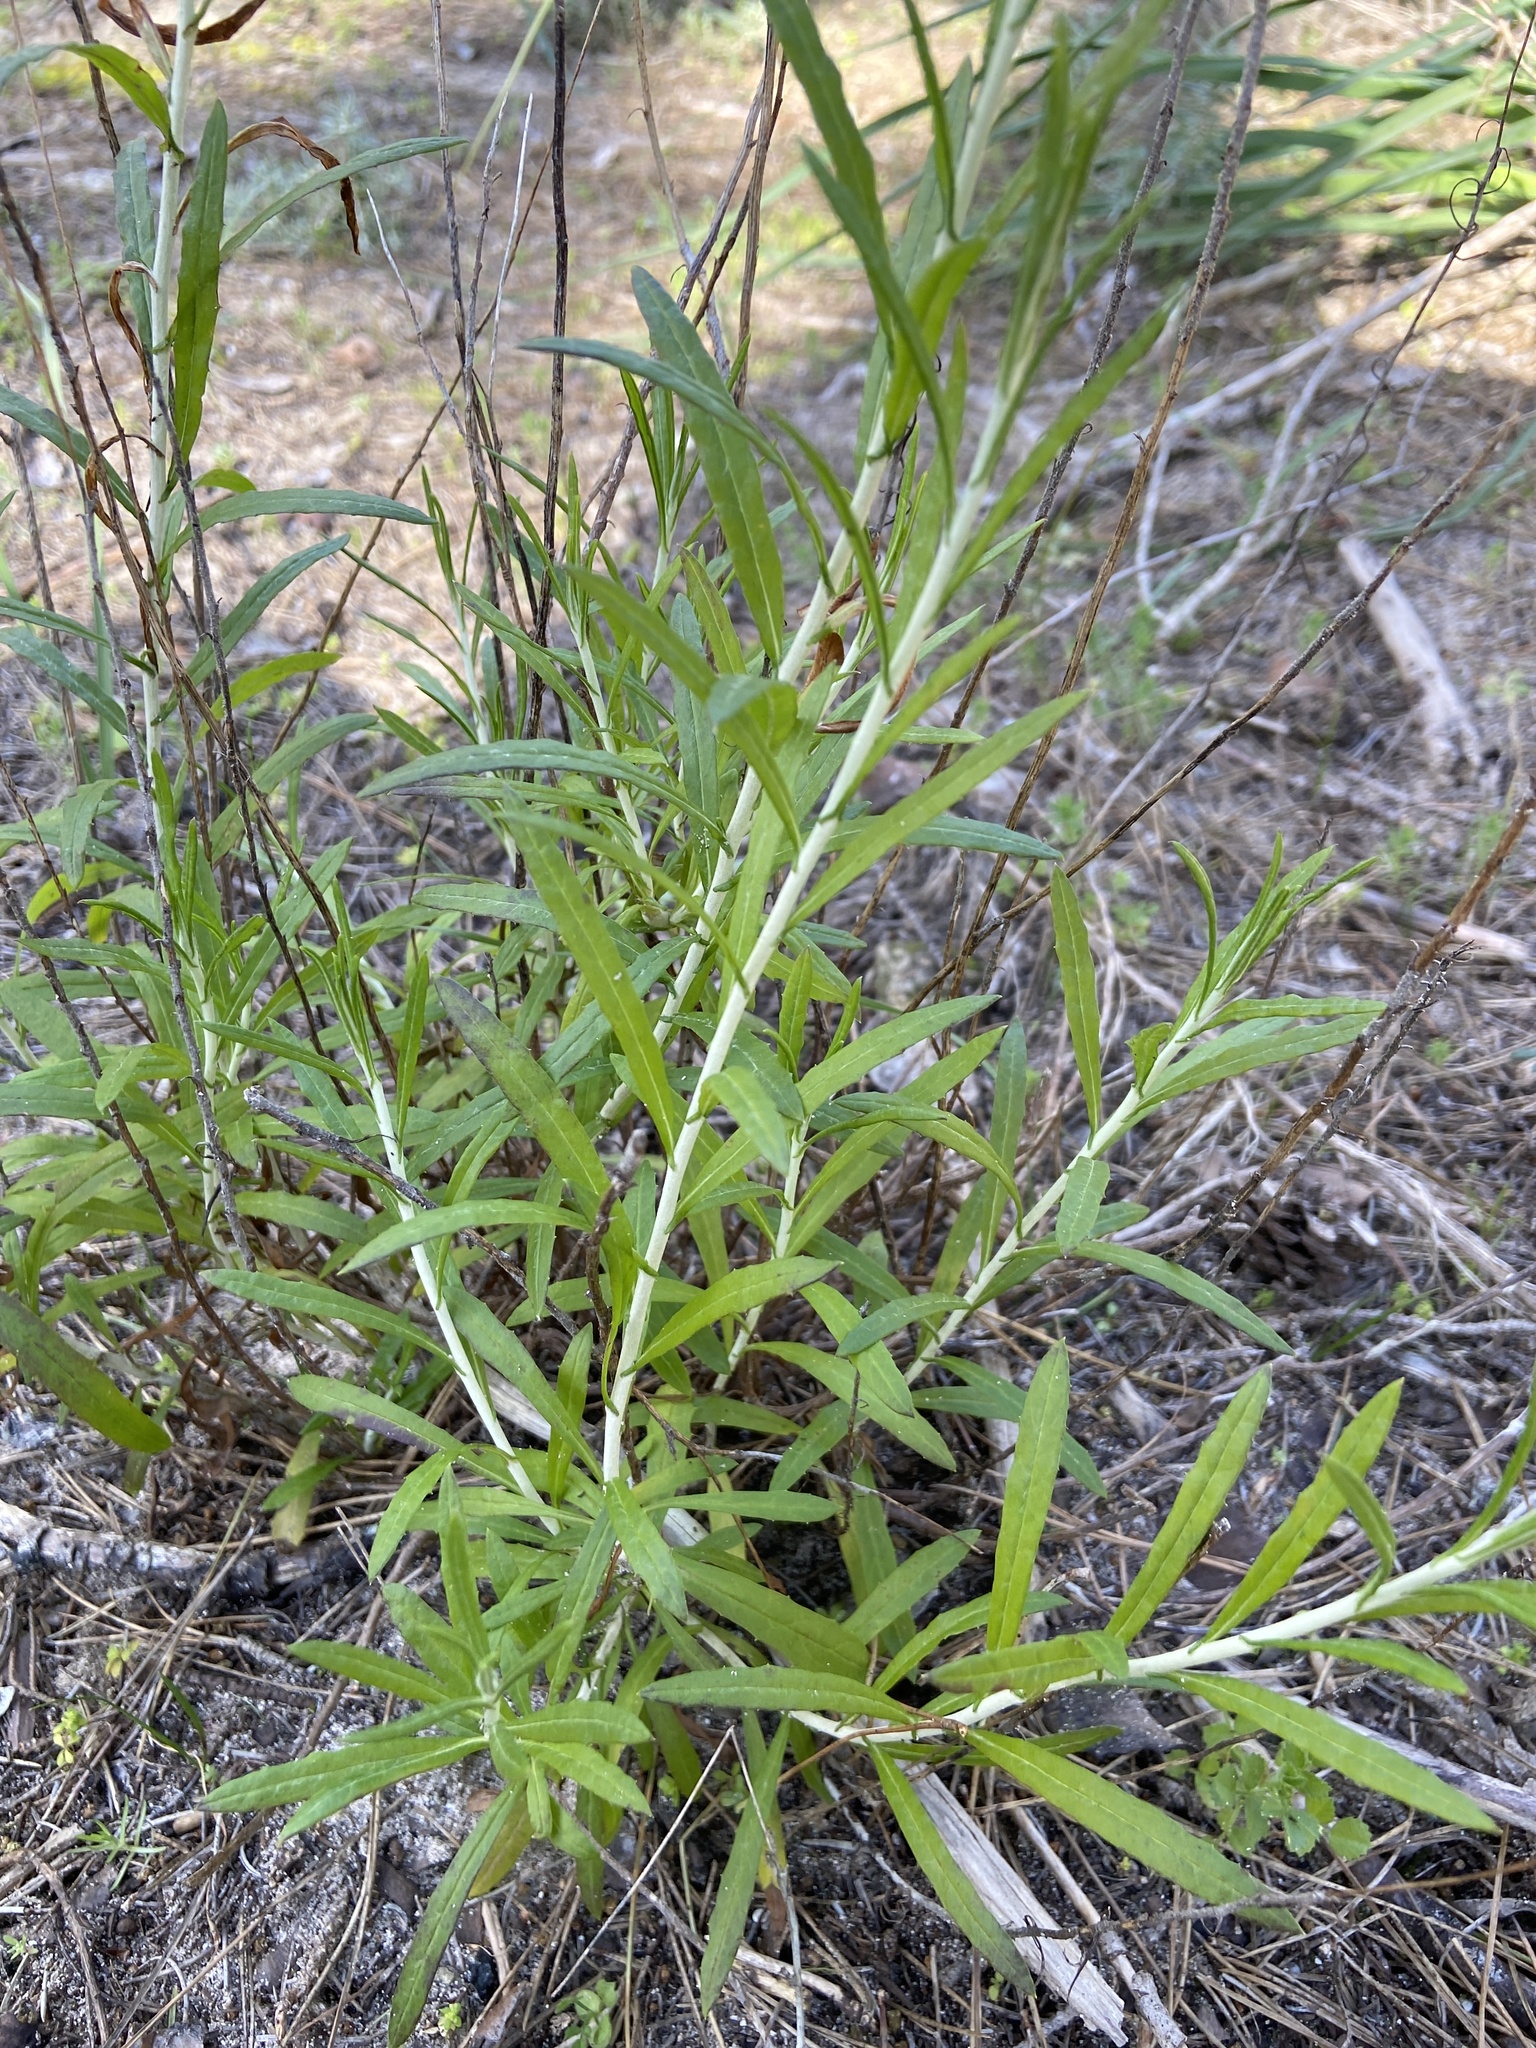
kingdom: Plantae
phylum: Tracheophyta
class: Magnoliopsida
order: Asterales
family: Asteraceae
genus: Phagnalon
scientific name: Phagnalon saxatile
